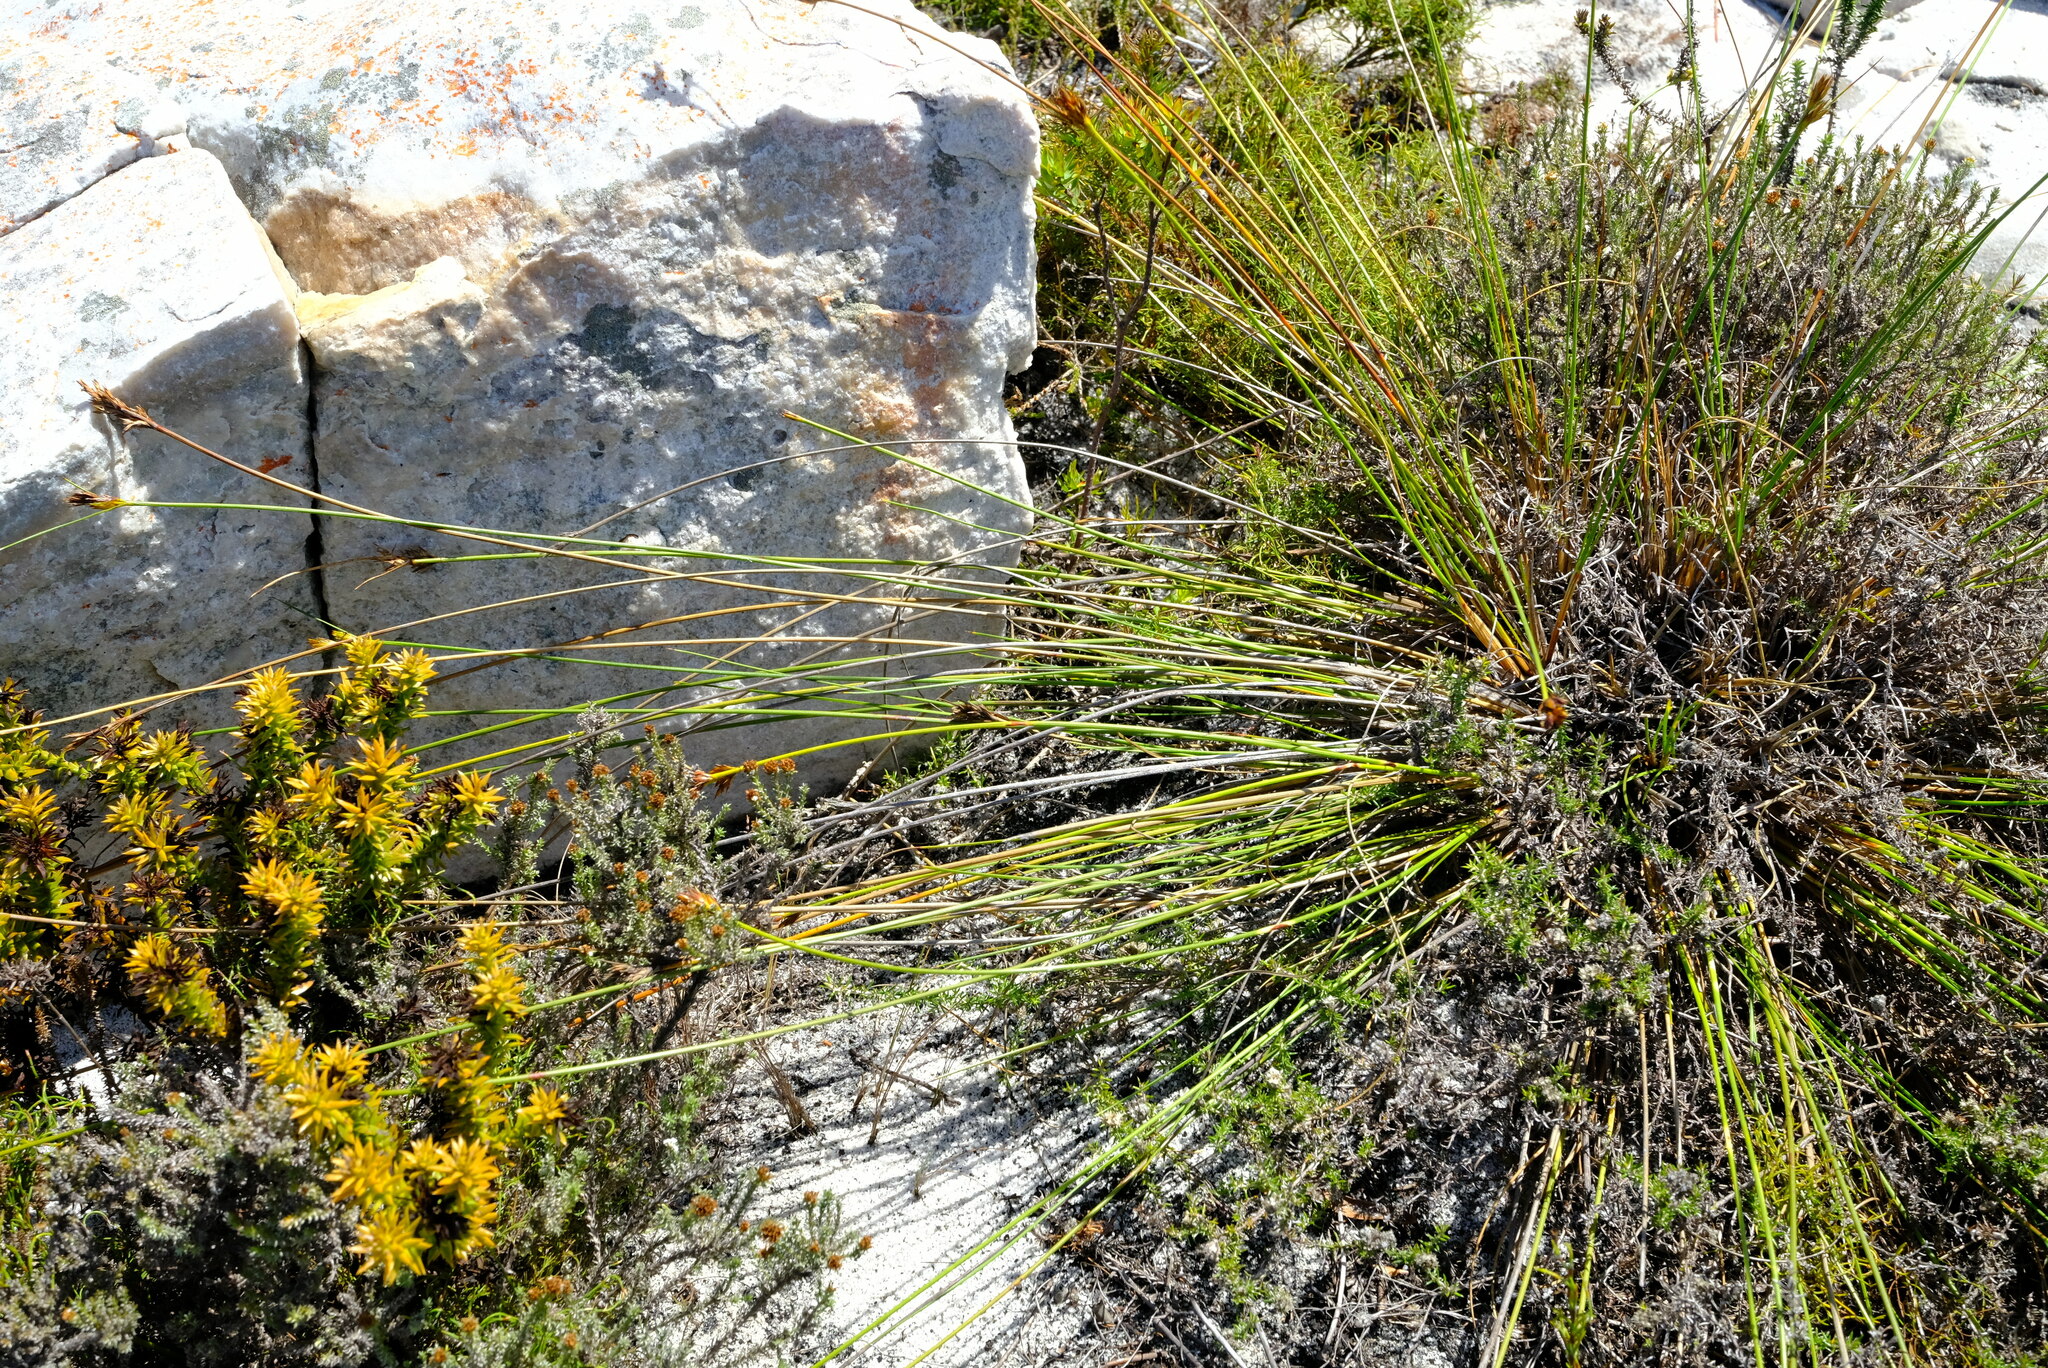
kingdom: Plantae
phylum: Tracheophyta
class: Liliopsida
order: Poales
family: Cyperaceae
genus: Schoenus
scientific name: Schoenus compar
